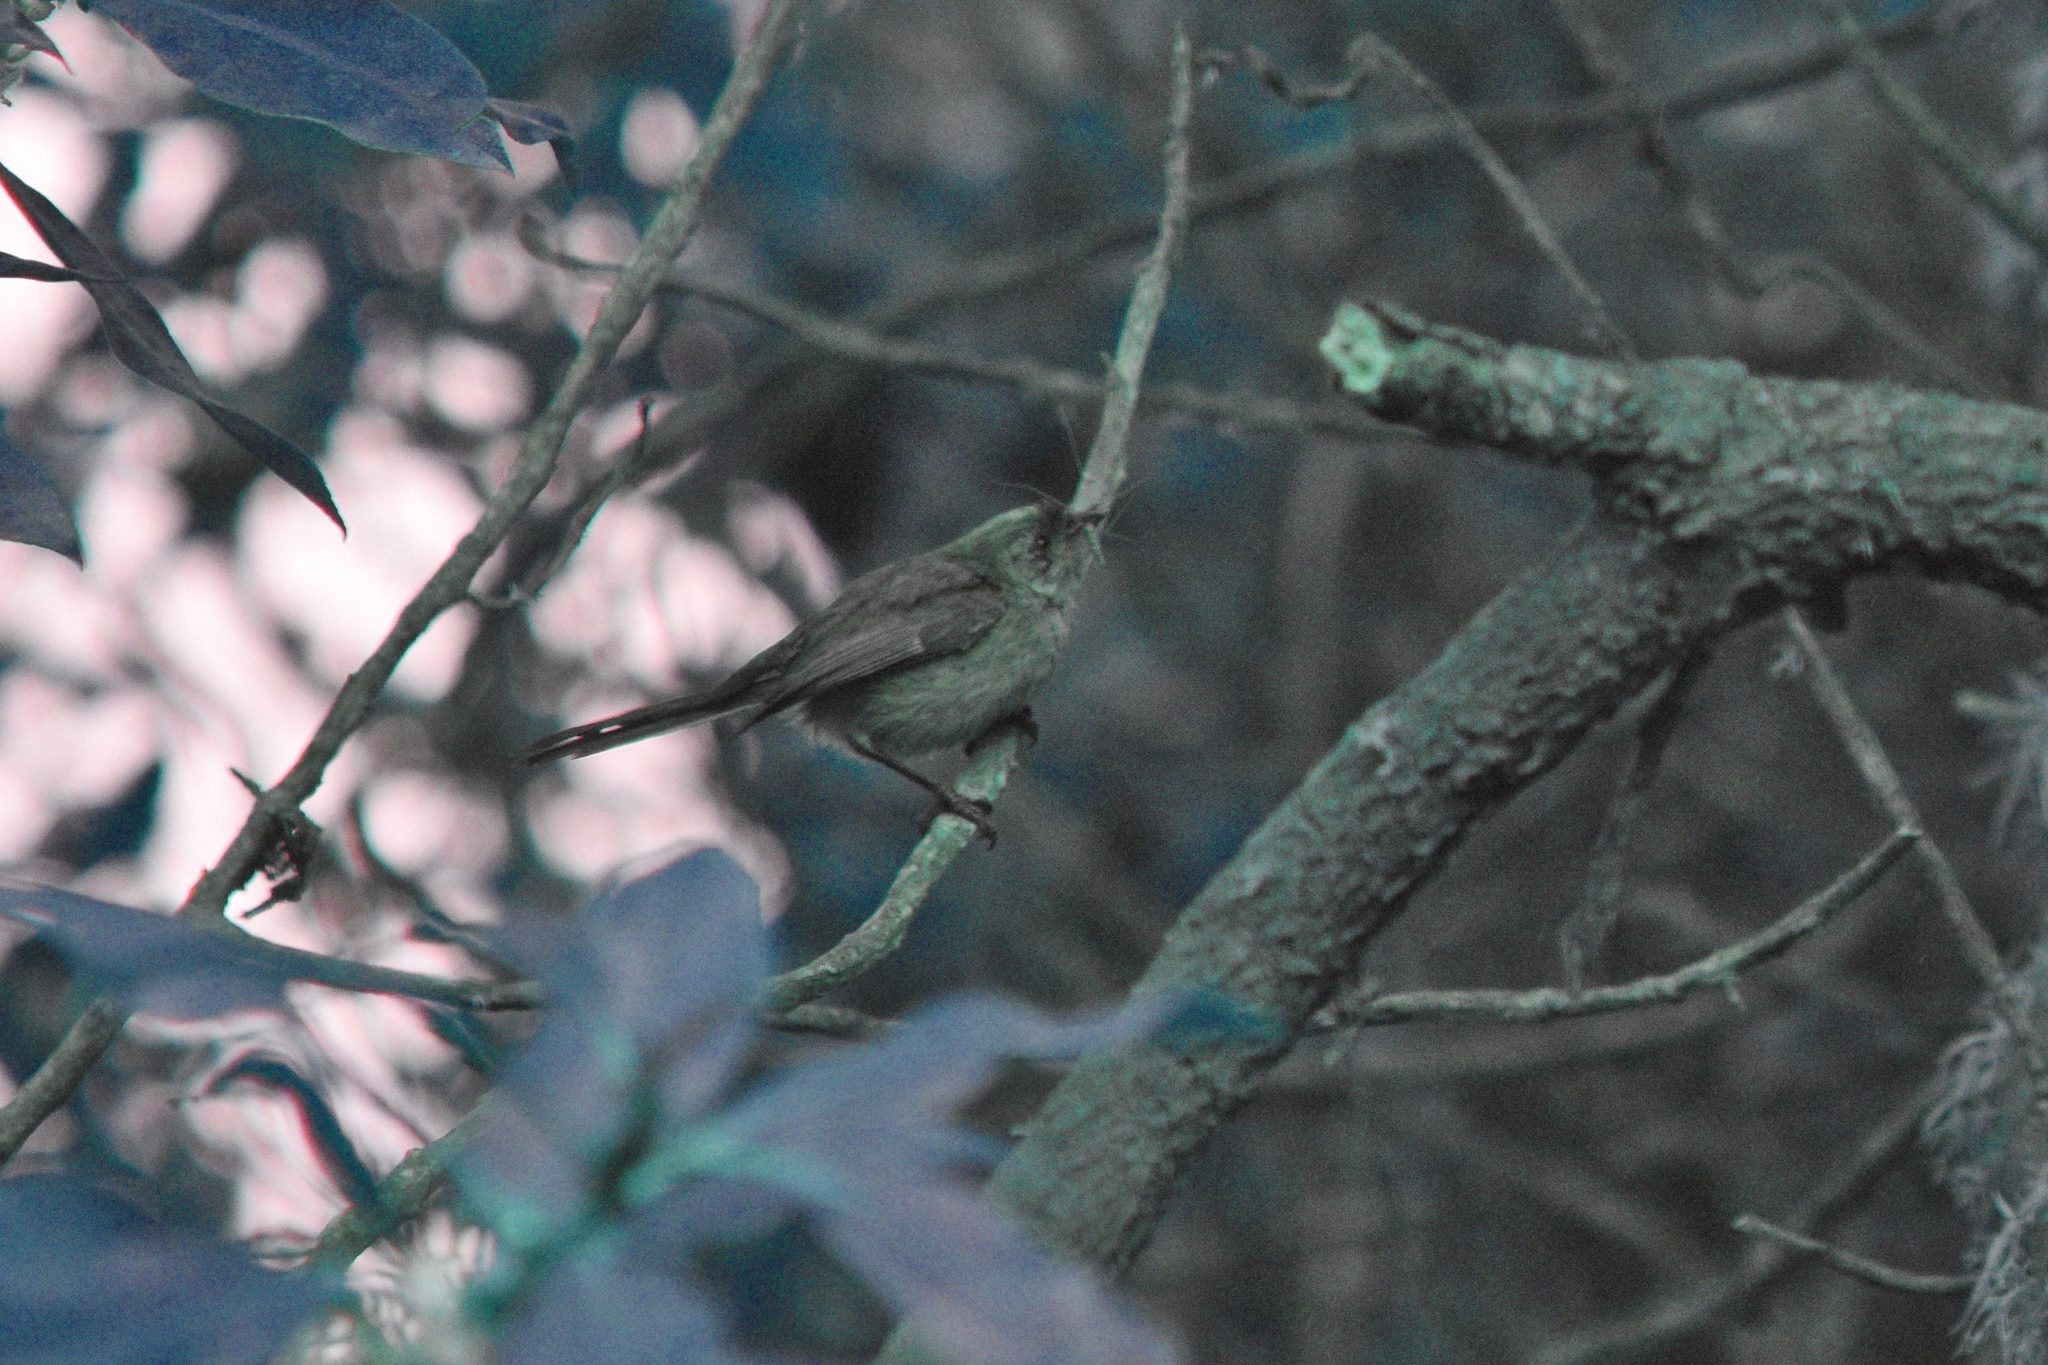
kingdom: Animalia
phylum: Chordata
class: Aves
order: Passeriformes
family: Aegithalidae
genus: Psaltriparus
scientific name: Psaltriparus minimus
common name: American bushtit
